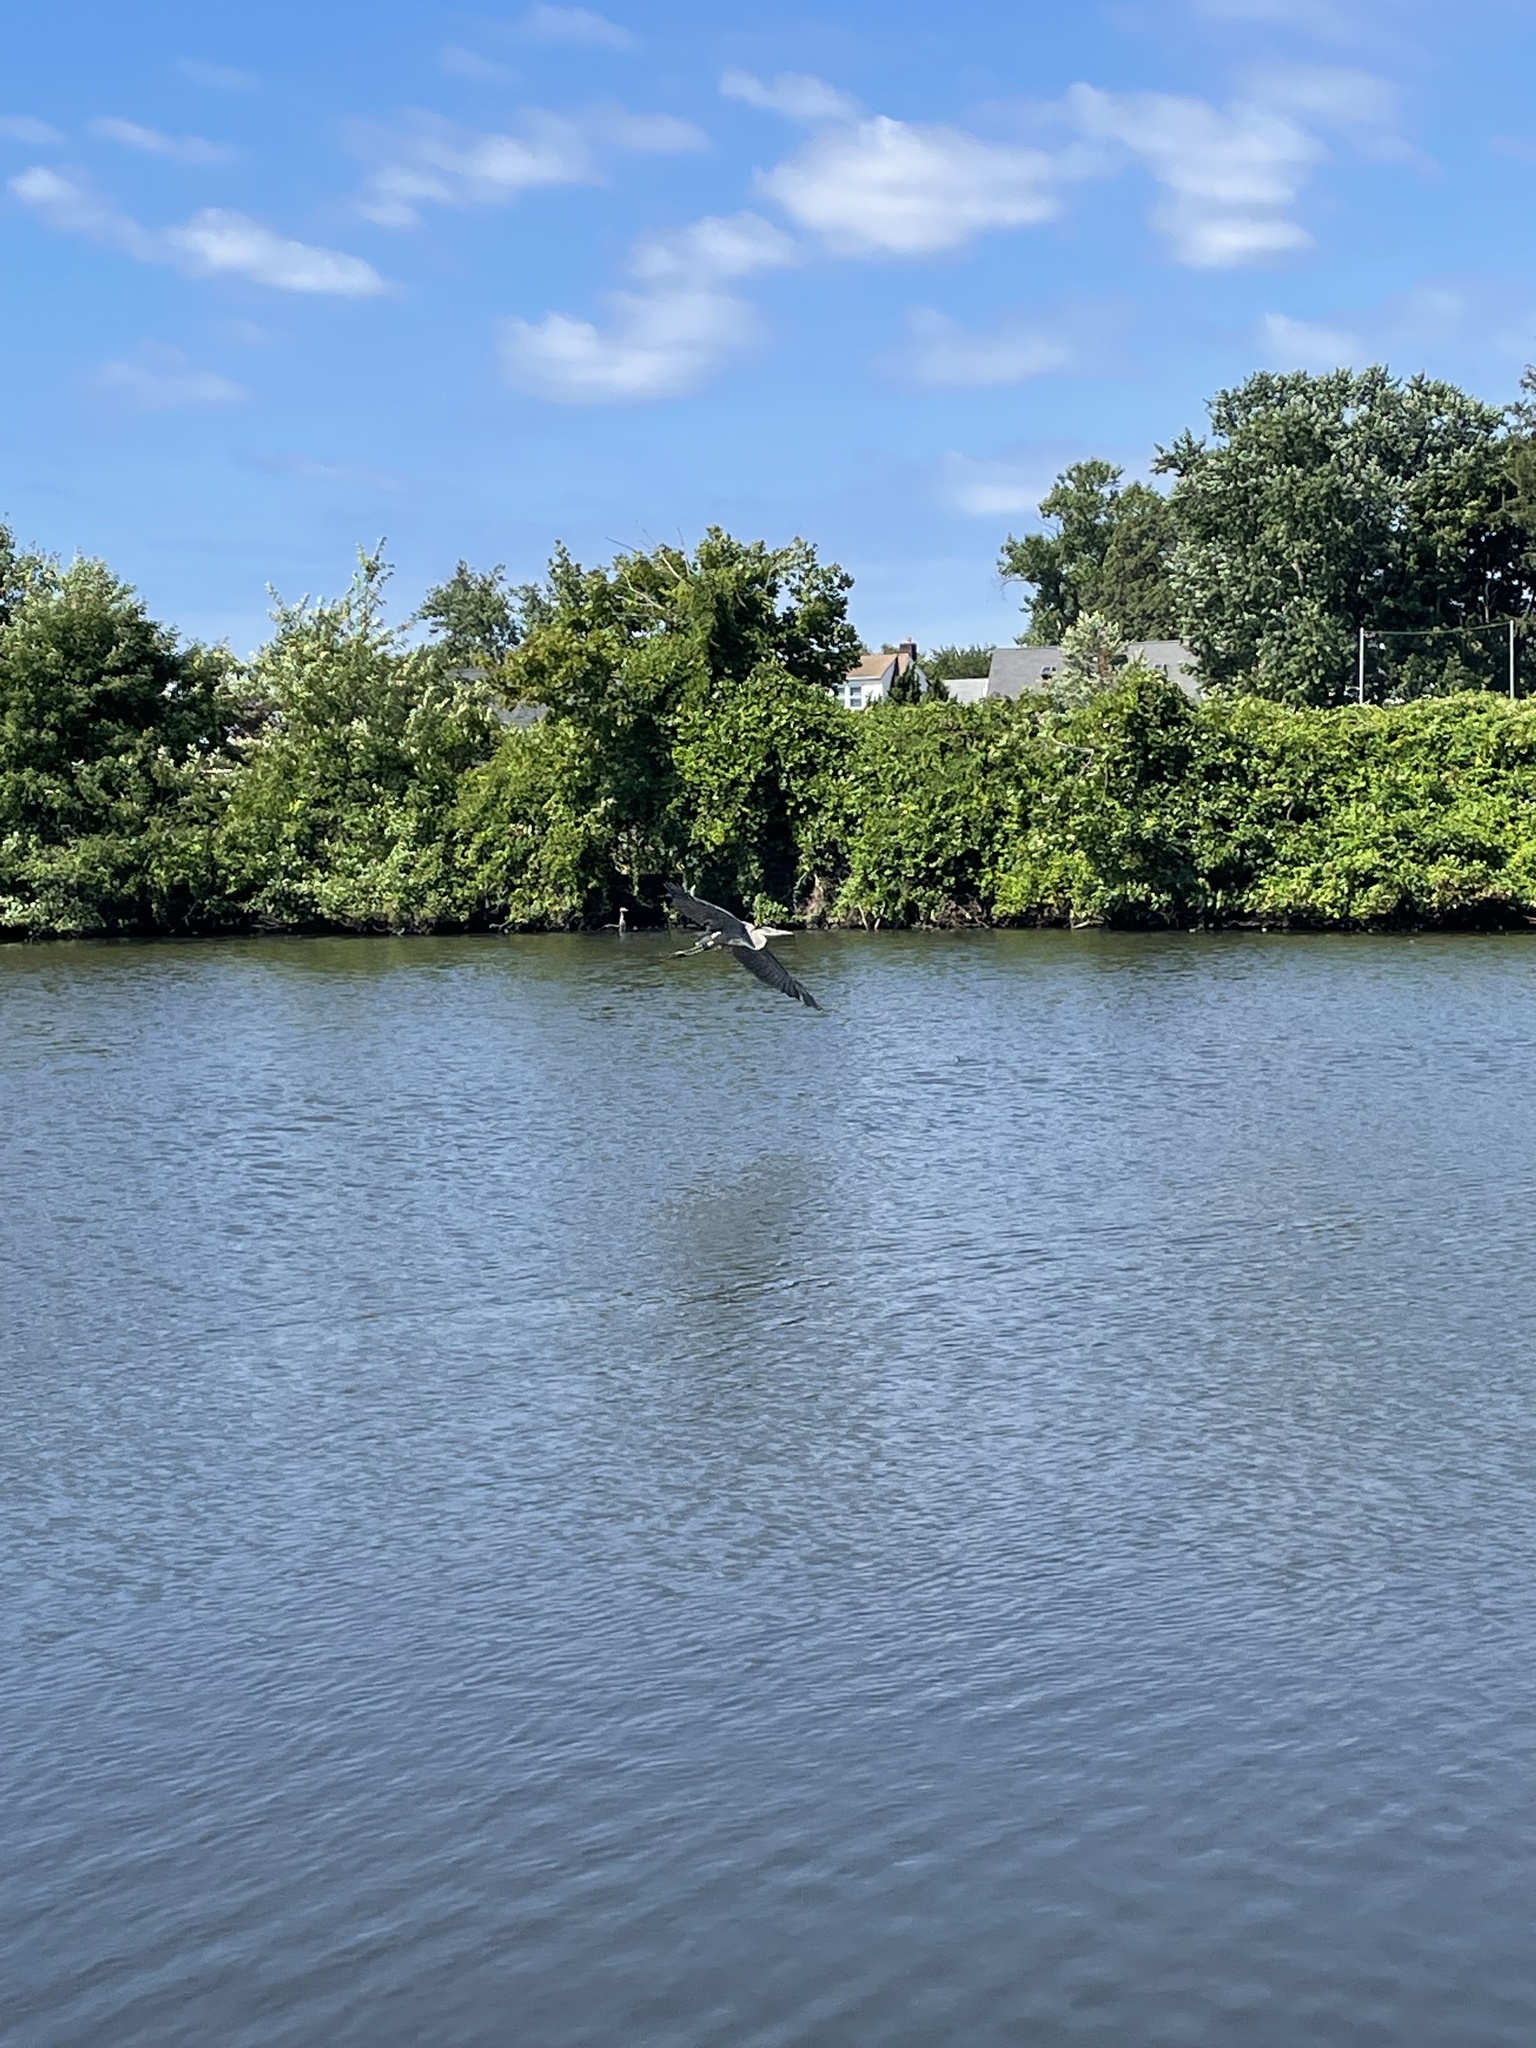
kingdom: Animalia
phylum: Chordata
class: Aves
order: Pelecaniformes
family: Ardeidae
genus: Ardea
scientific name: Ardea herodias
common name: Great blue heron
